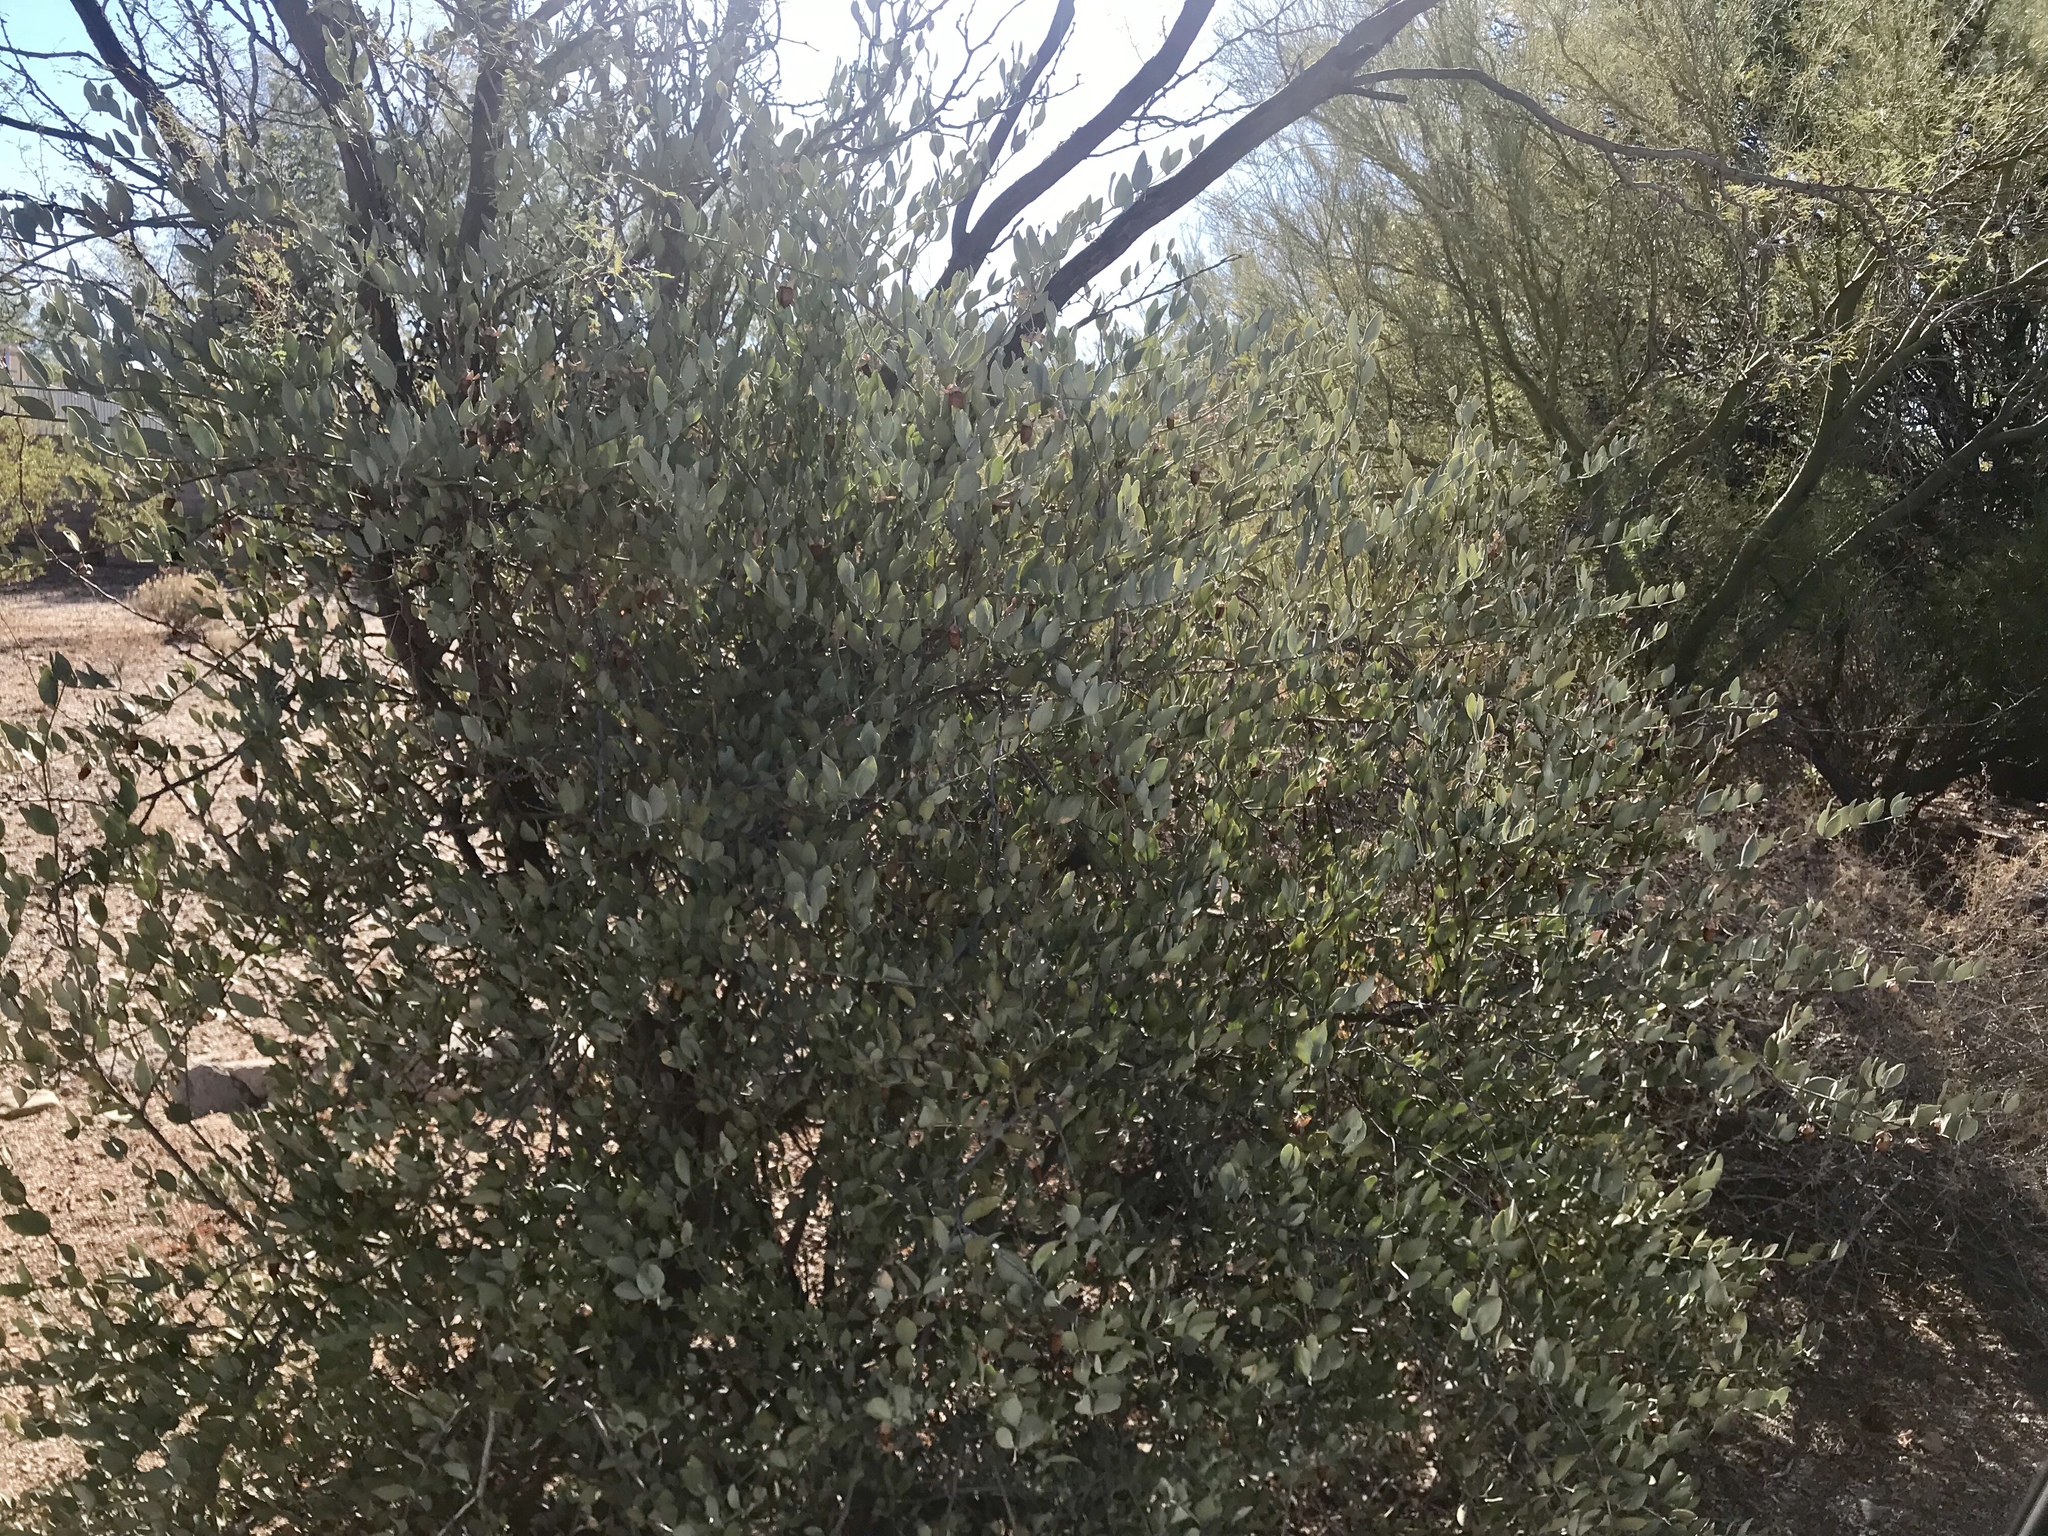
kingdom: Plantae
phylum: Tracheophyta
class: Magnoliopsida
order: Caryophyllales
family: Simmondsiaceae
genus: Simmondsia
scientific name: Simmondsia chinensis
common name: Jojoba
